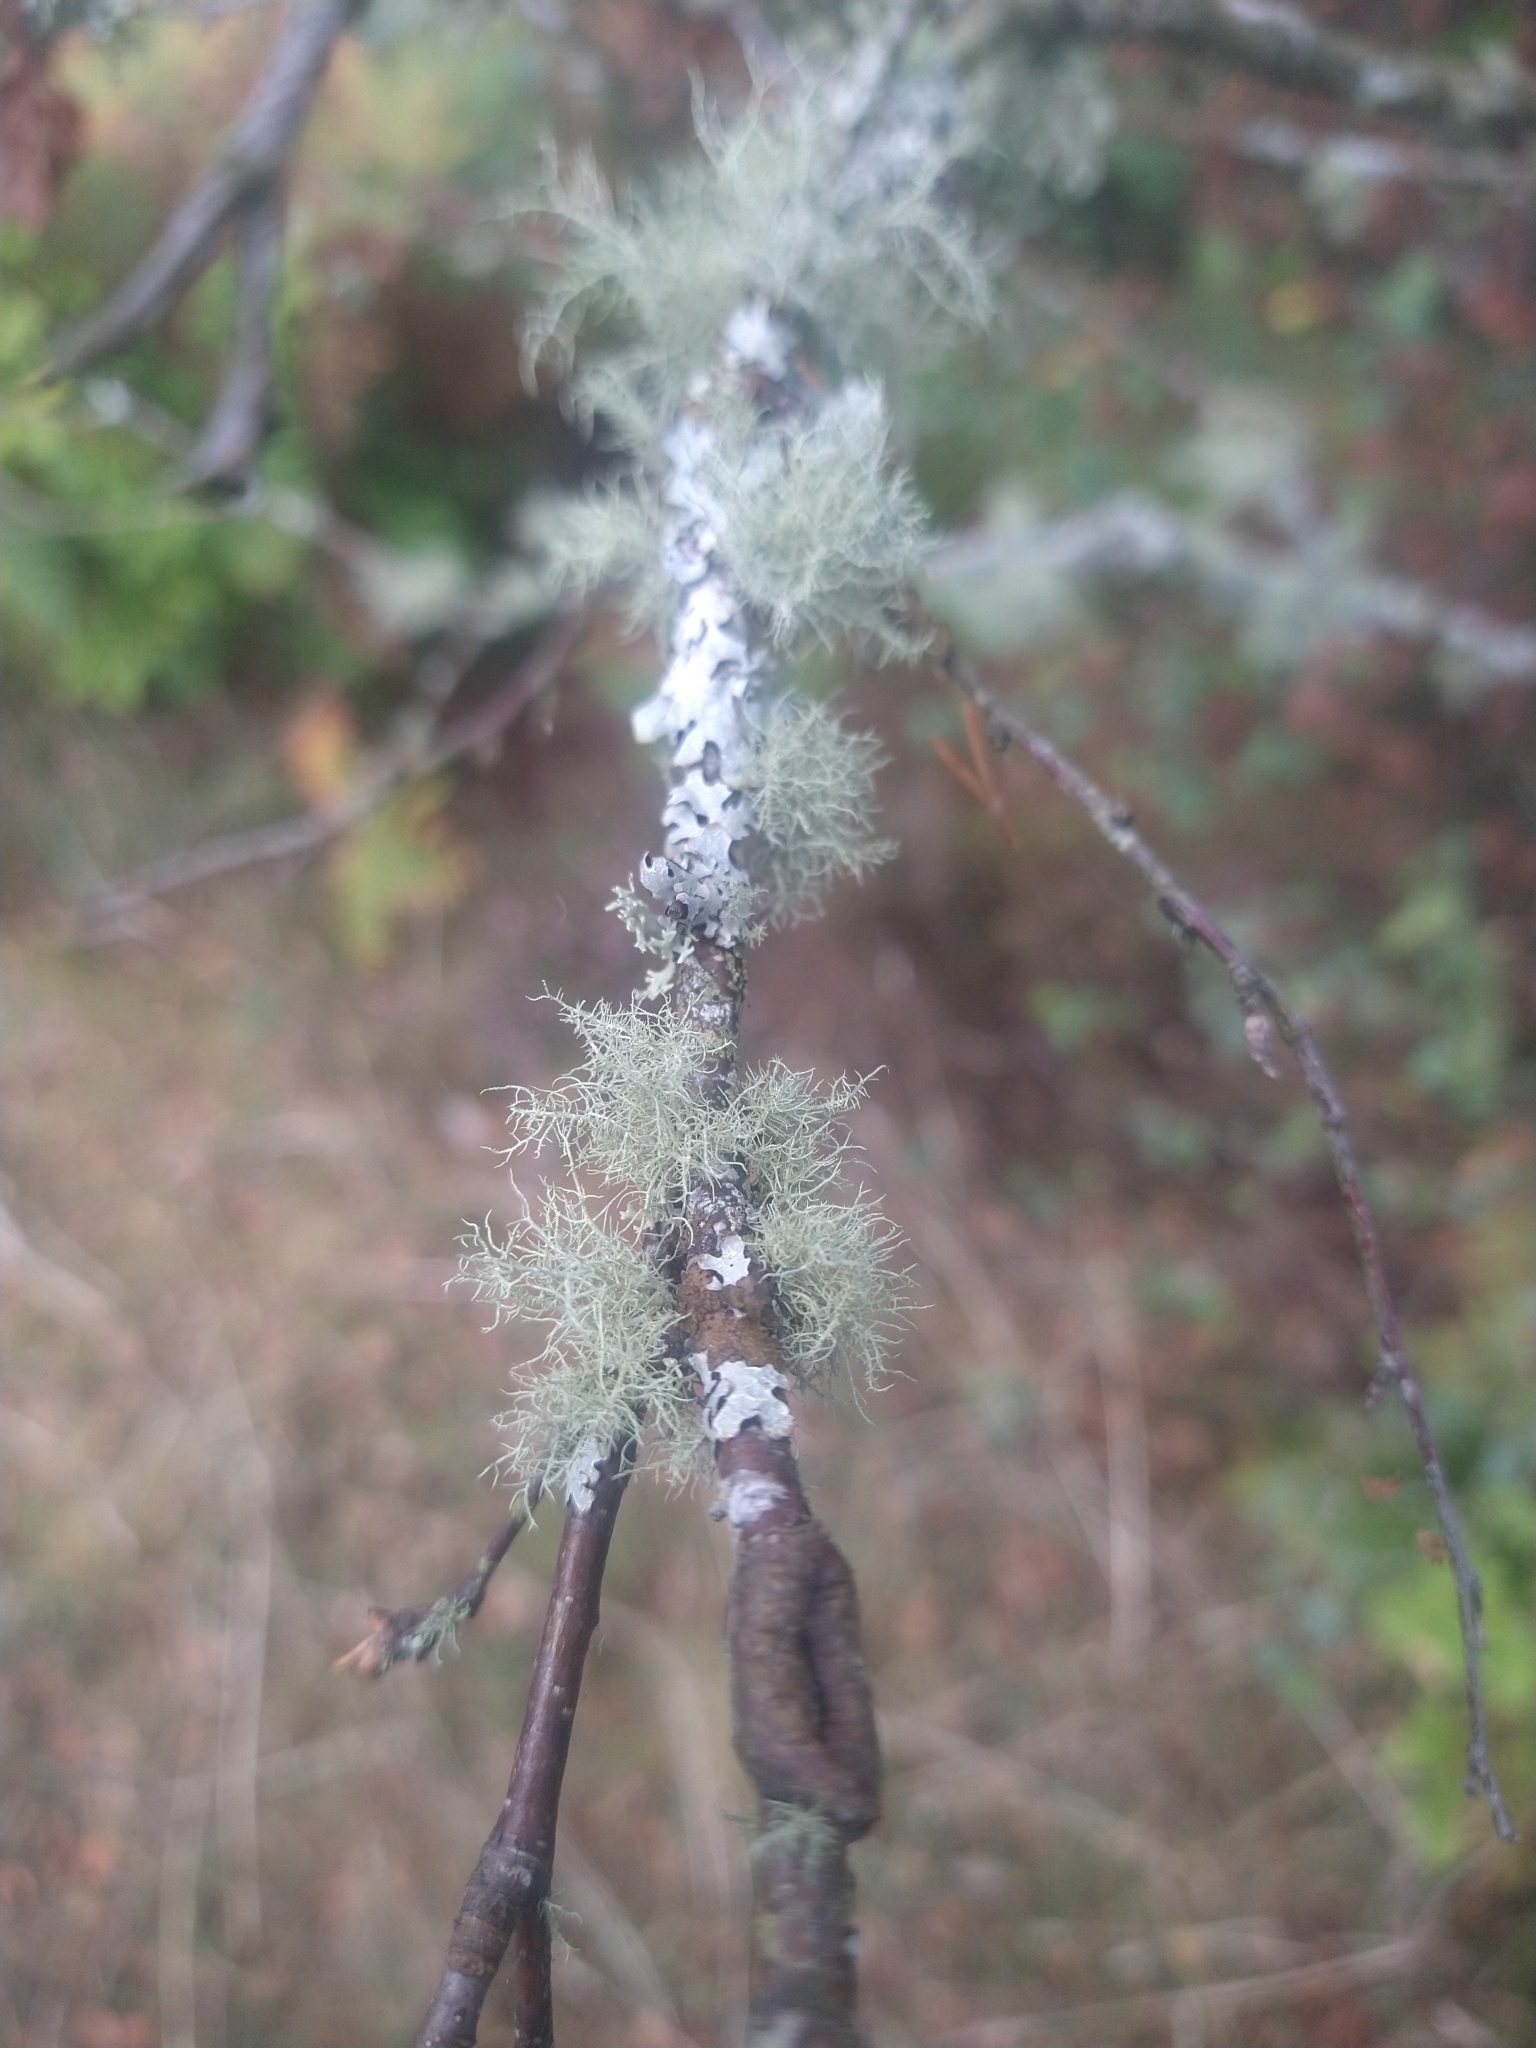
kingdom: Fungi
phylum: Ascomycota
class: Lecanoromycetes
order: Lecanorales
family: Parmeliaceae
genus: Usnea
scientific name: Usnea
